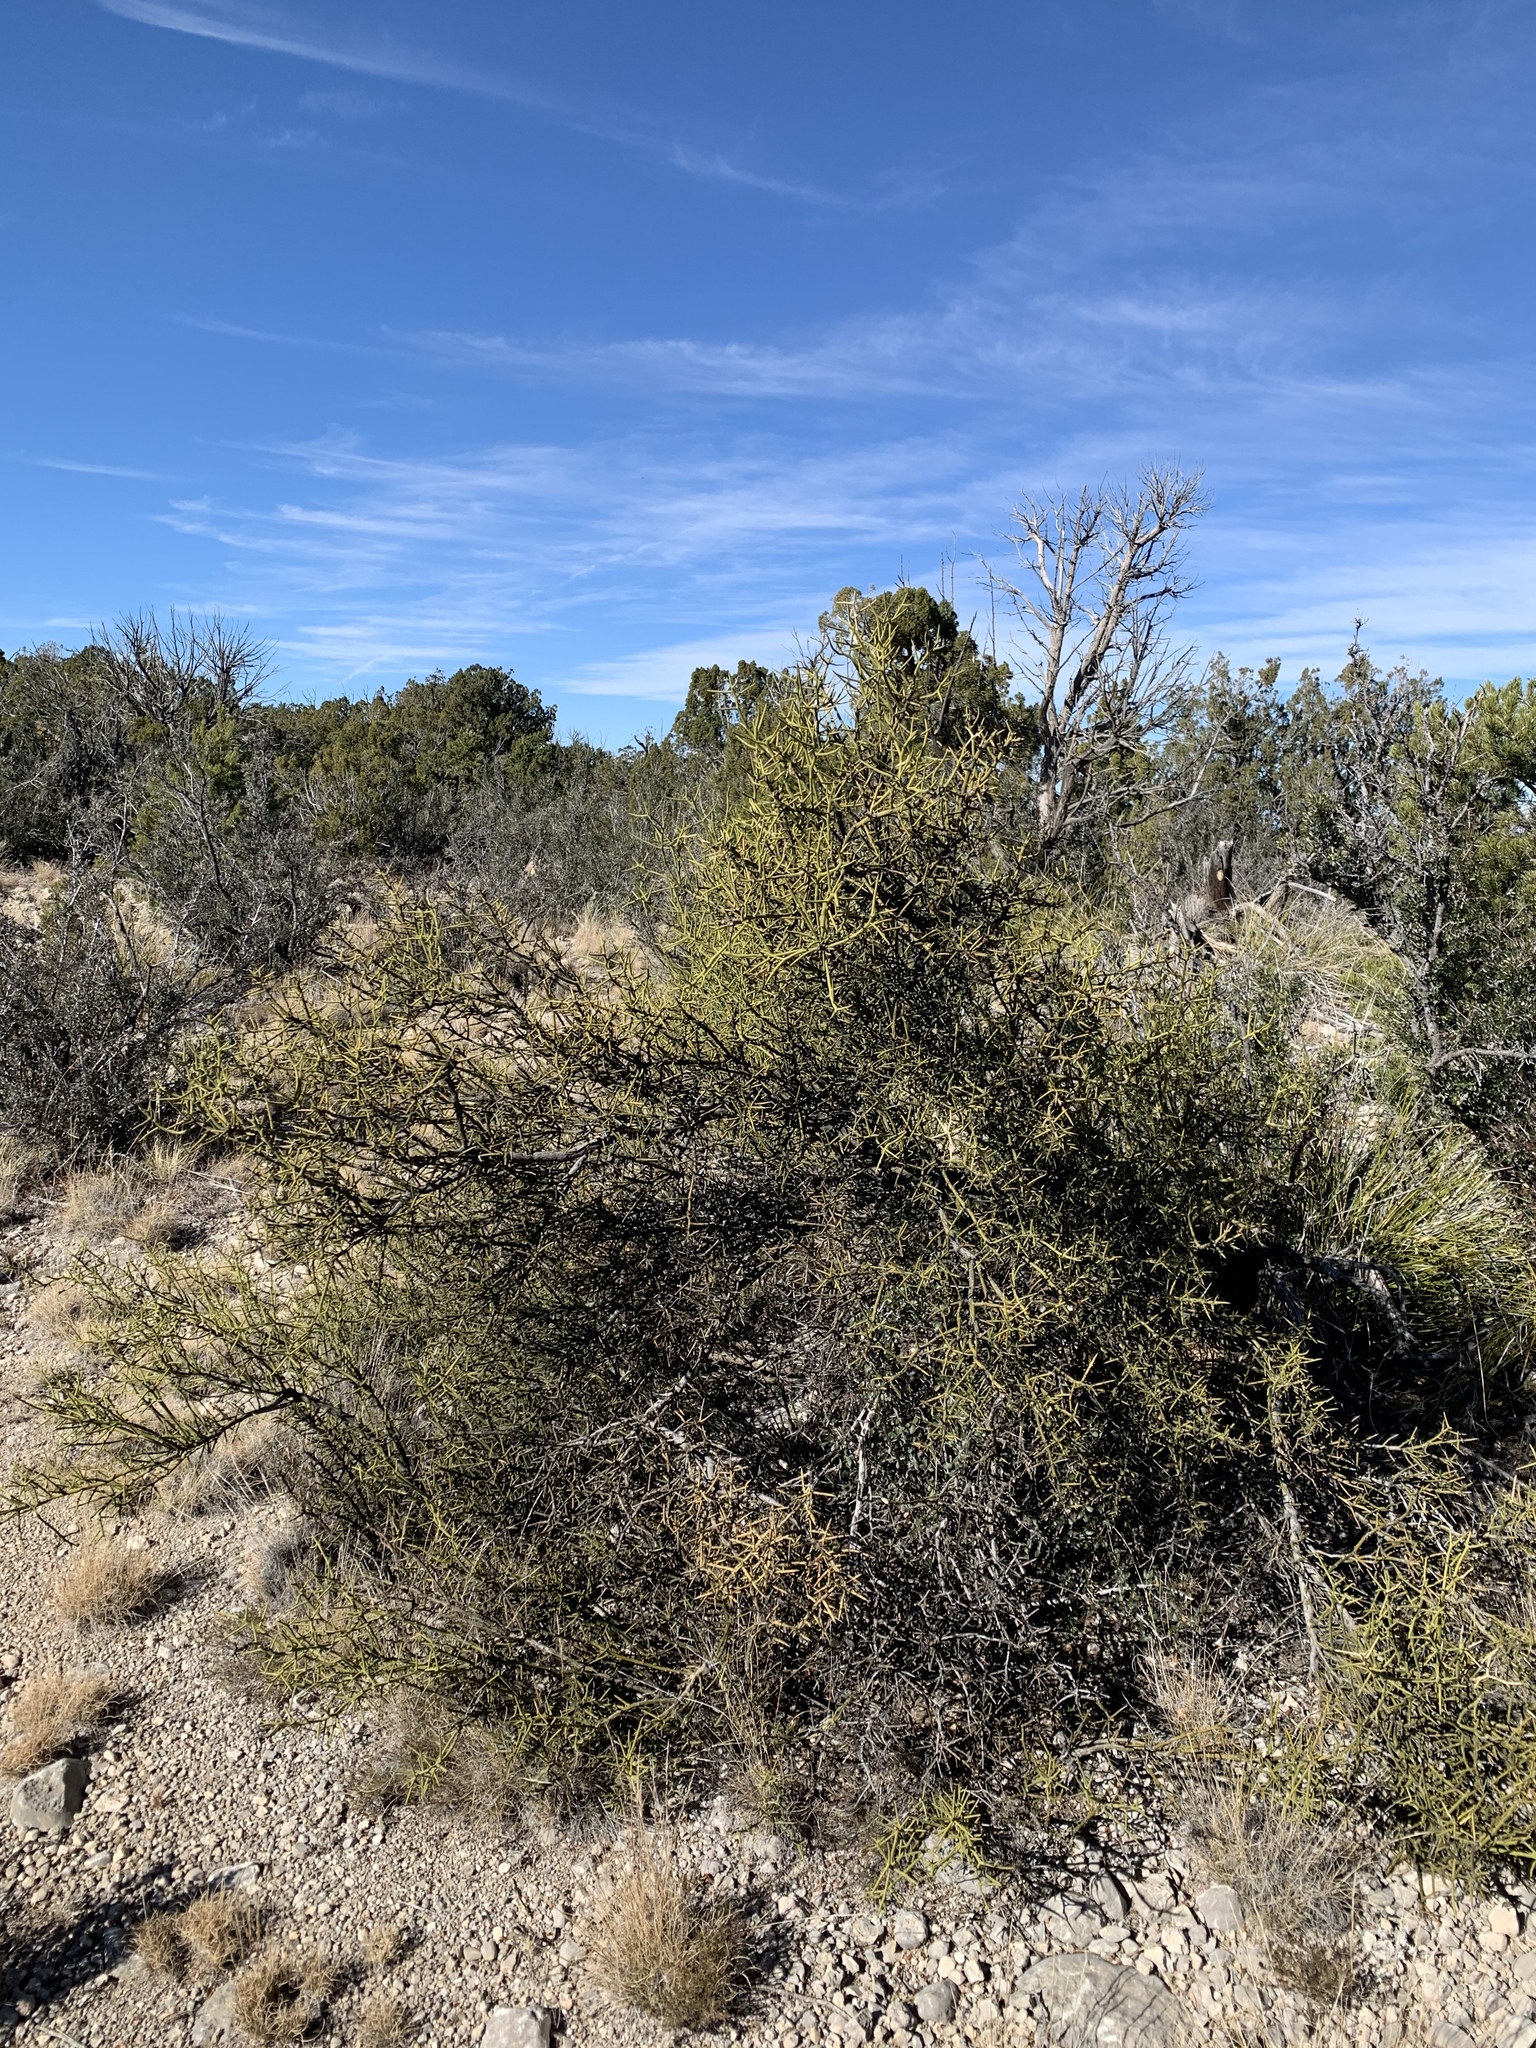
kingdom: Plantae
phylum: Tracheophyta
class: Magnoliopsida
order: Brassicales
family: Koeberliniaceae
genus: Koeberlinia
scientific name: Koeberlinia spinosa
